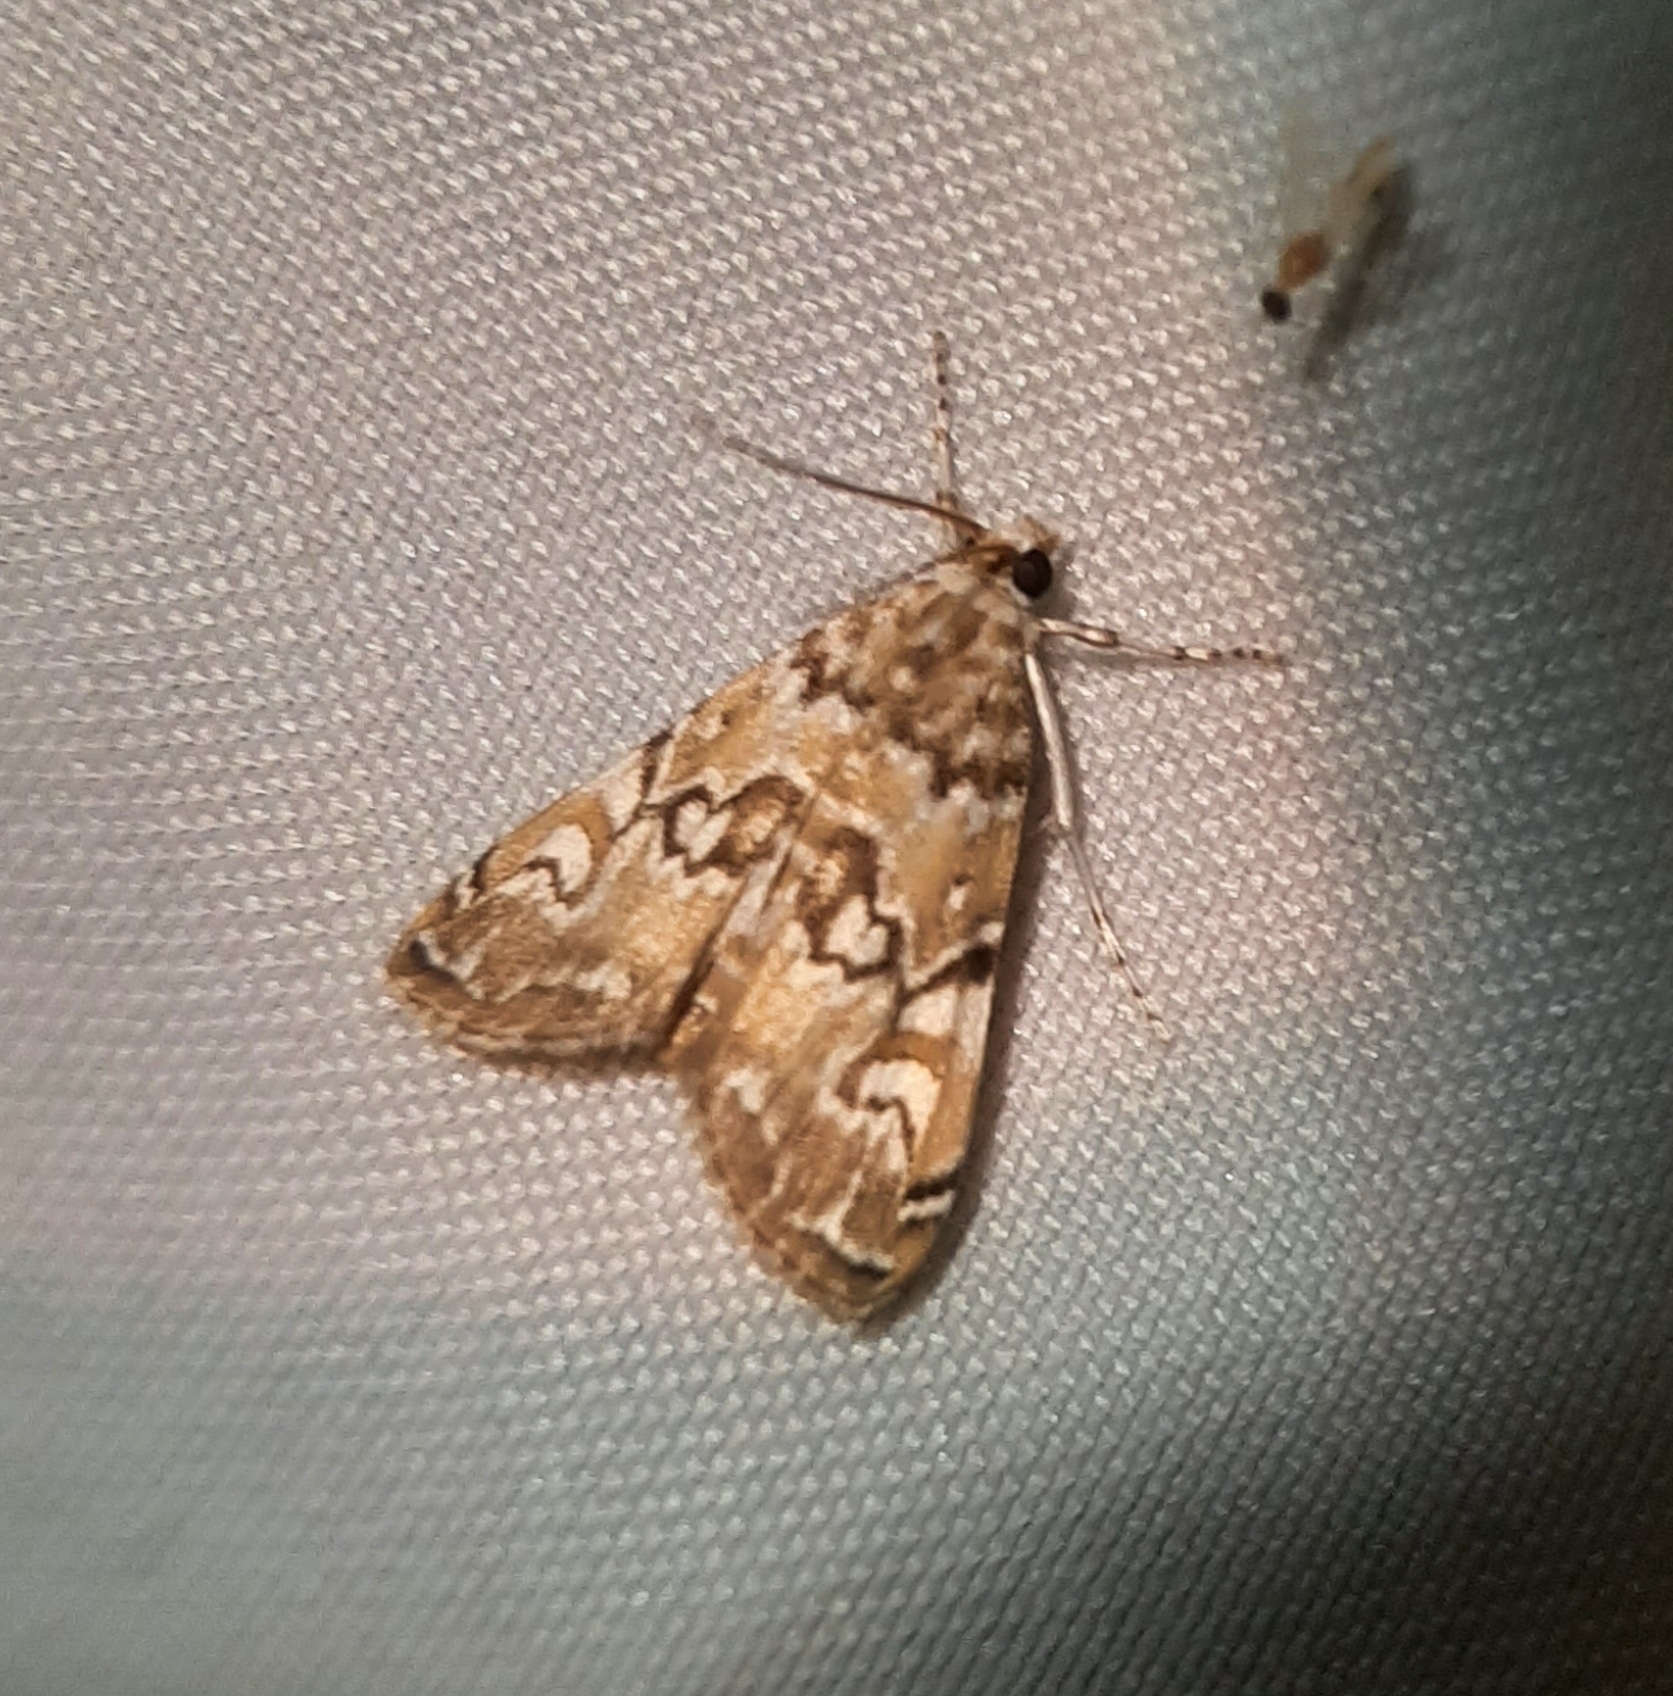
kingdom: Animalia
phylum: Arthropoda
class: Insecta
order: Lepidoptera
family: Crambidae
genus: Elophila
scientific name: Elophila gyralis
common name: Waterlily borer moth
